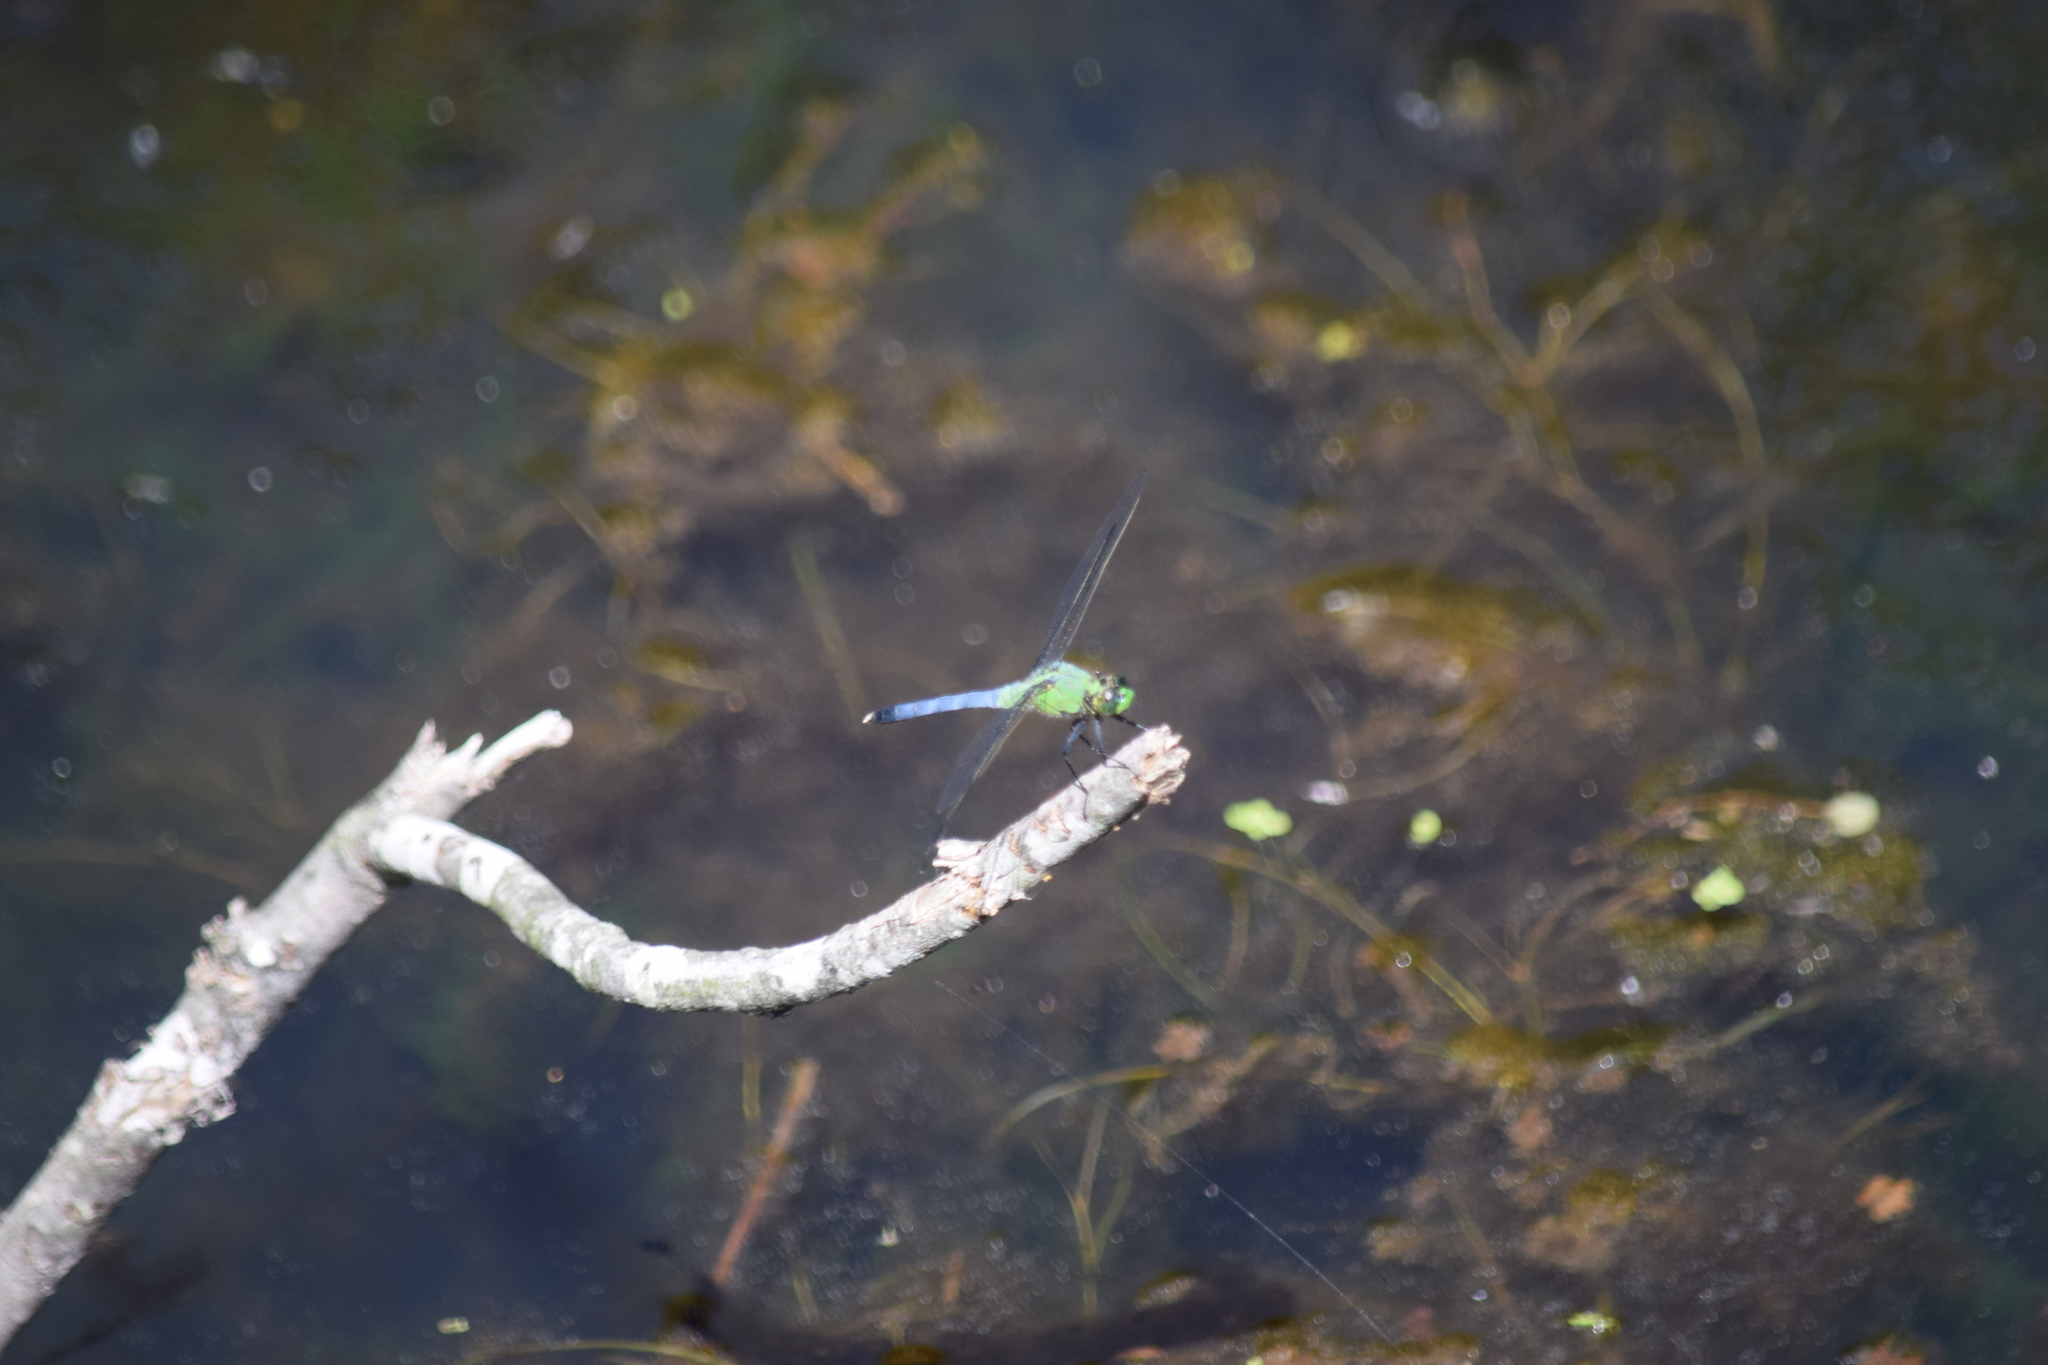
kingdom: Animalia
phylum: Arthropoda
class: Insecta
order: Odonata
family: Libellulidae
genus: Erythemis
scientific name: Erythemis simplicicollis
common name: Eastern pondhawk
